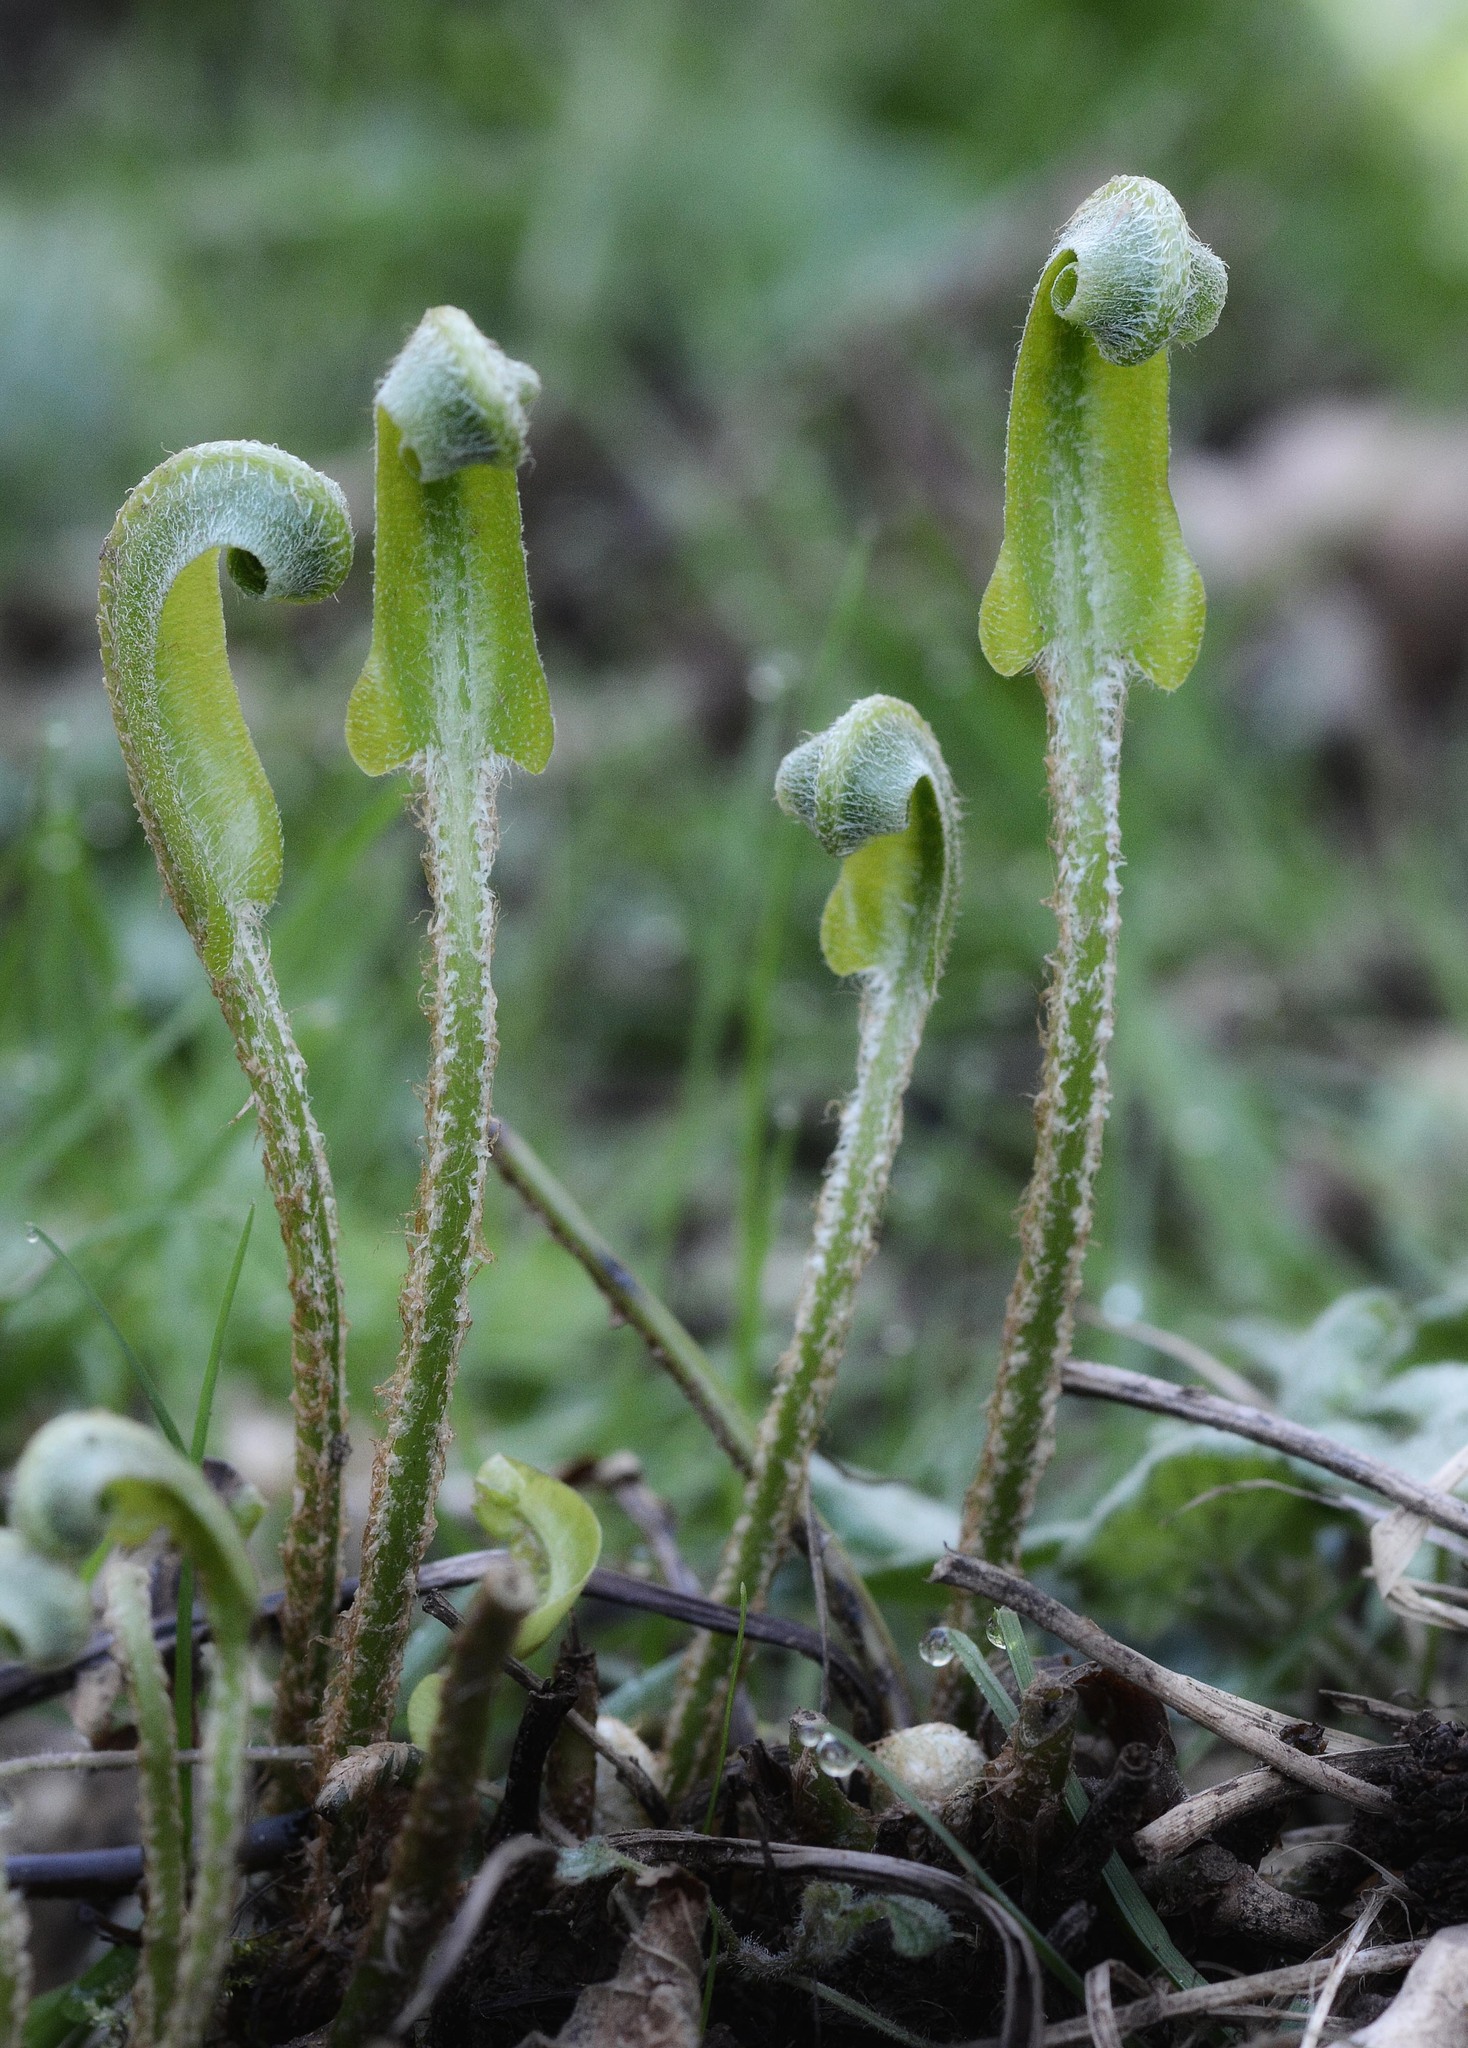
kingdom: Plantae
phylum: Tracheophyta
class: Polypodiopsida
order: Polypodiales
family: Aspleniaceae
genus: Asplenium
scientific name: Asplenium scolopendrium
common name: Hart's-tongue fern
